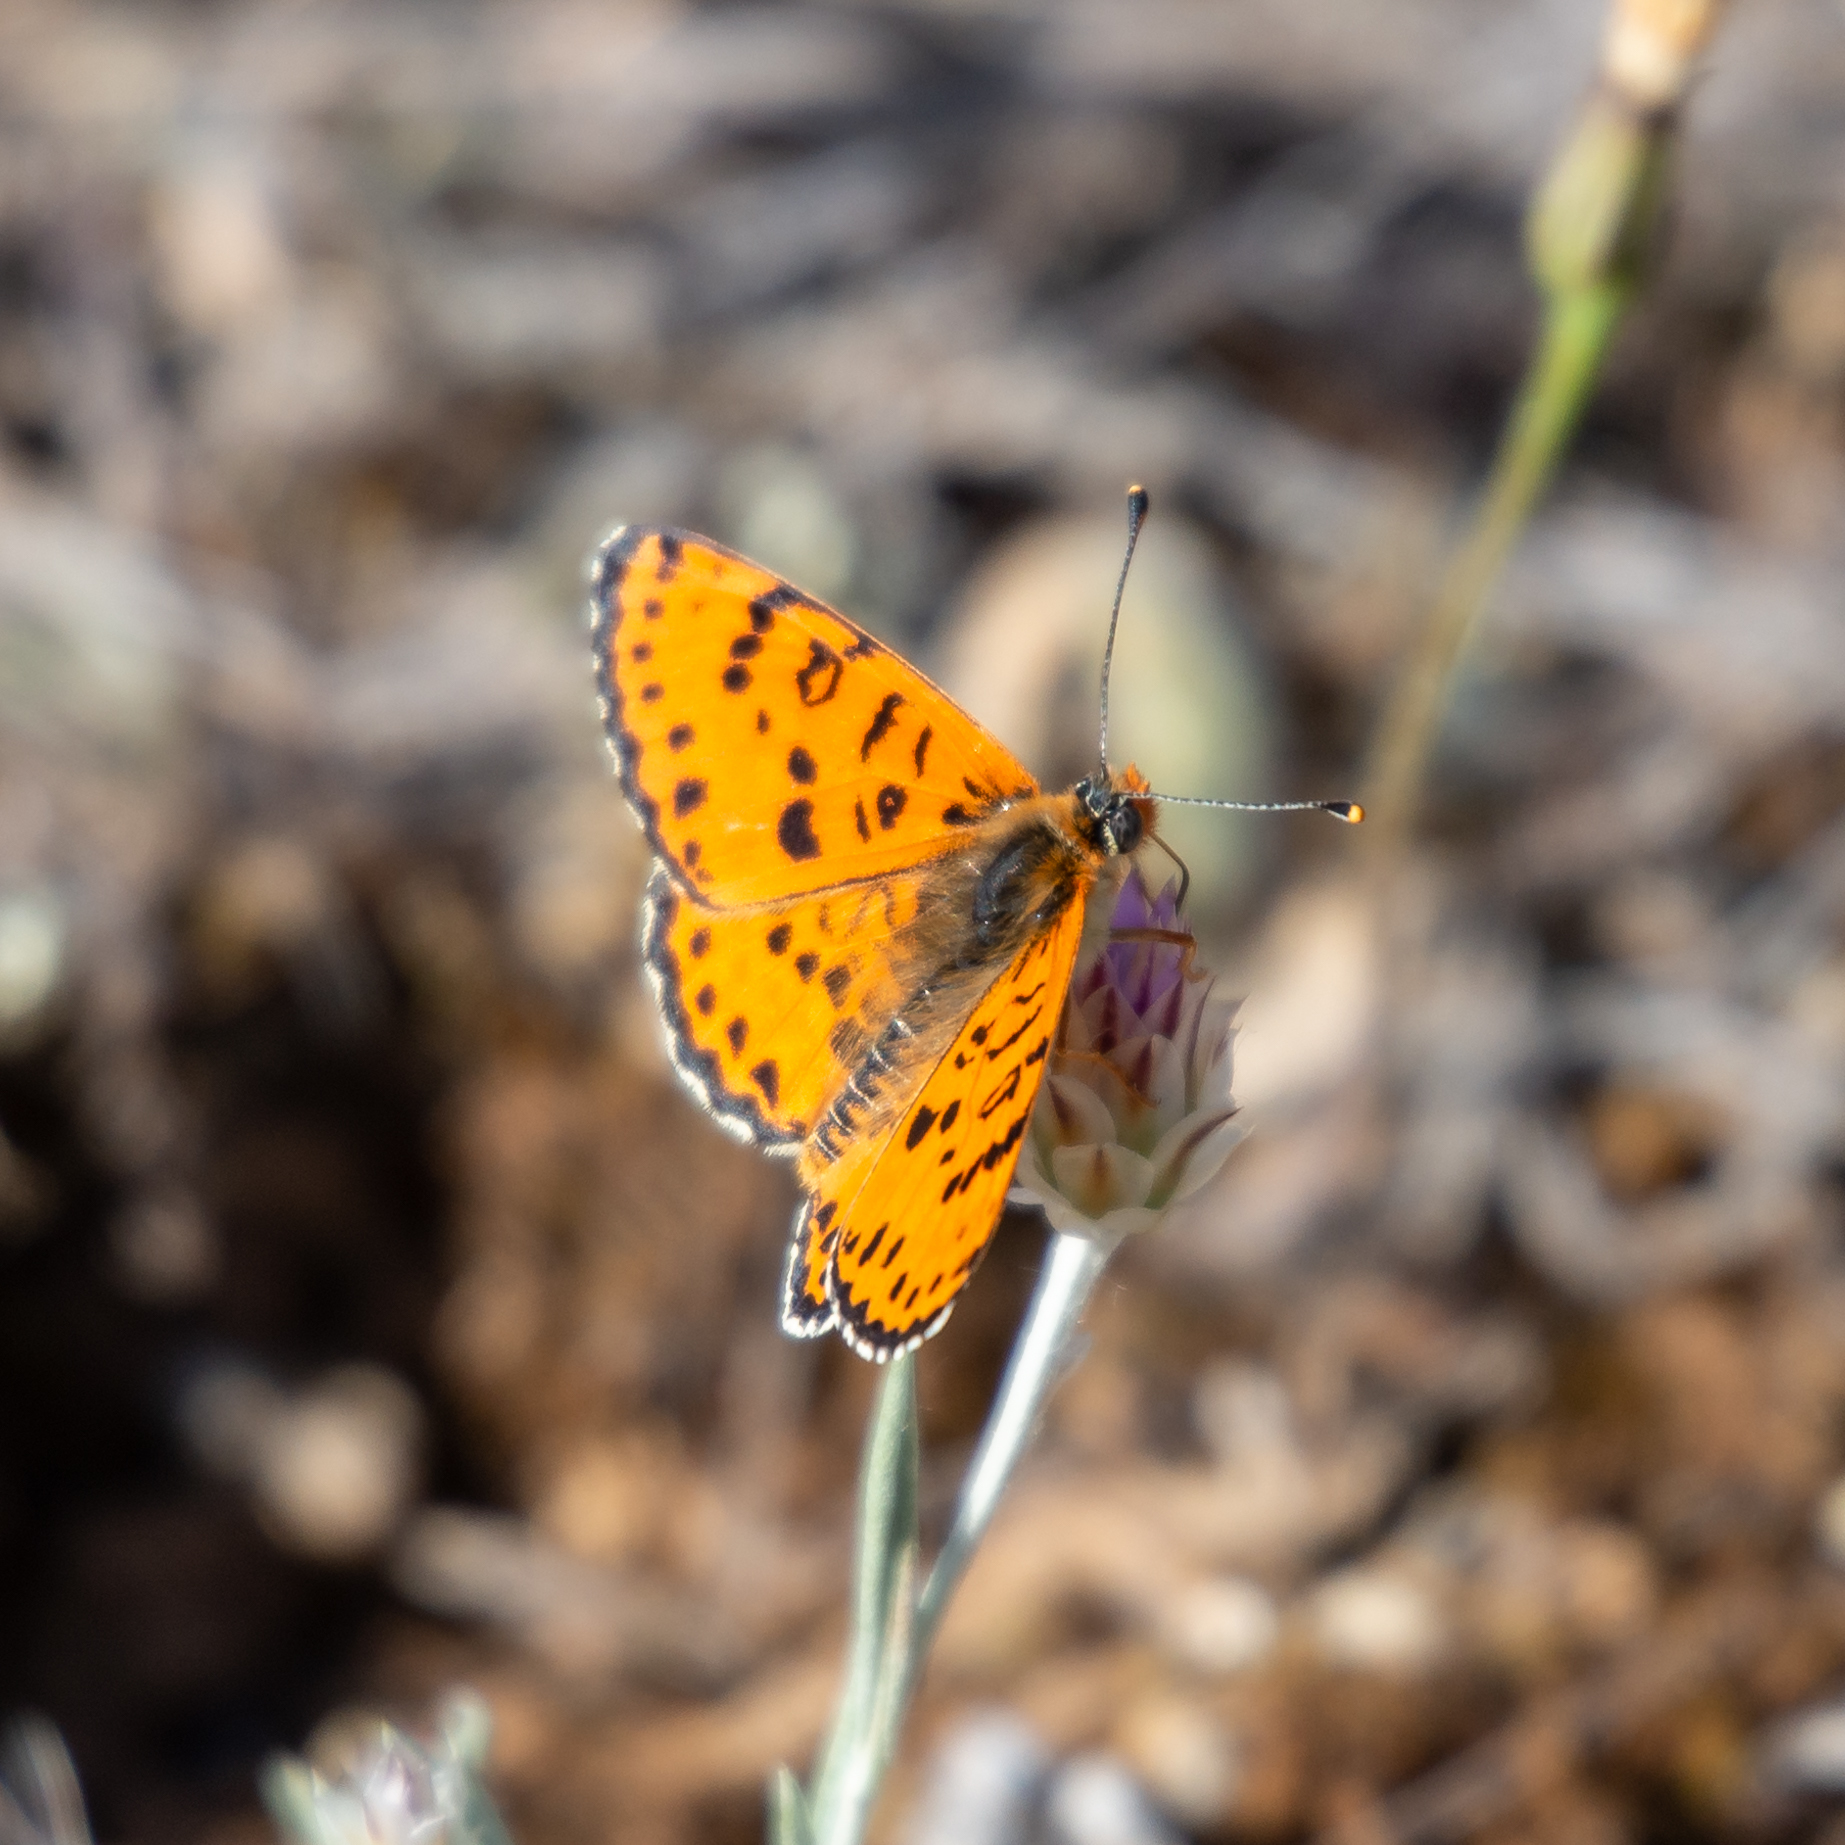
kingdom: Animalia
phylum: Arthropoda
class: Insecta
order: Lepidoptera
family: Nymphalidae
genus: Melitaea
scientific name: Melitaea didyma
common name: Spotted fritillary
